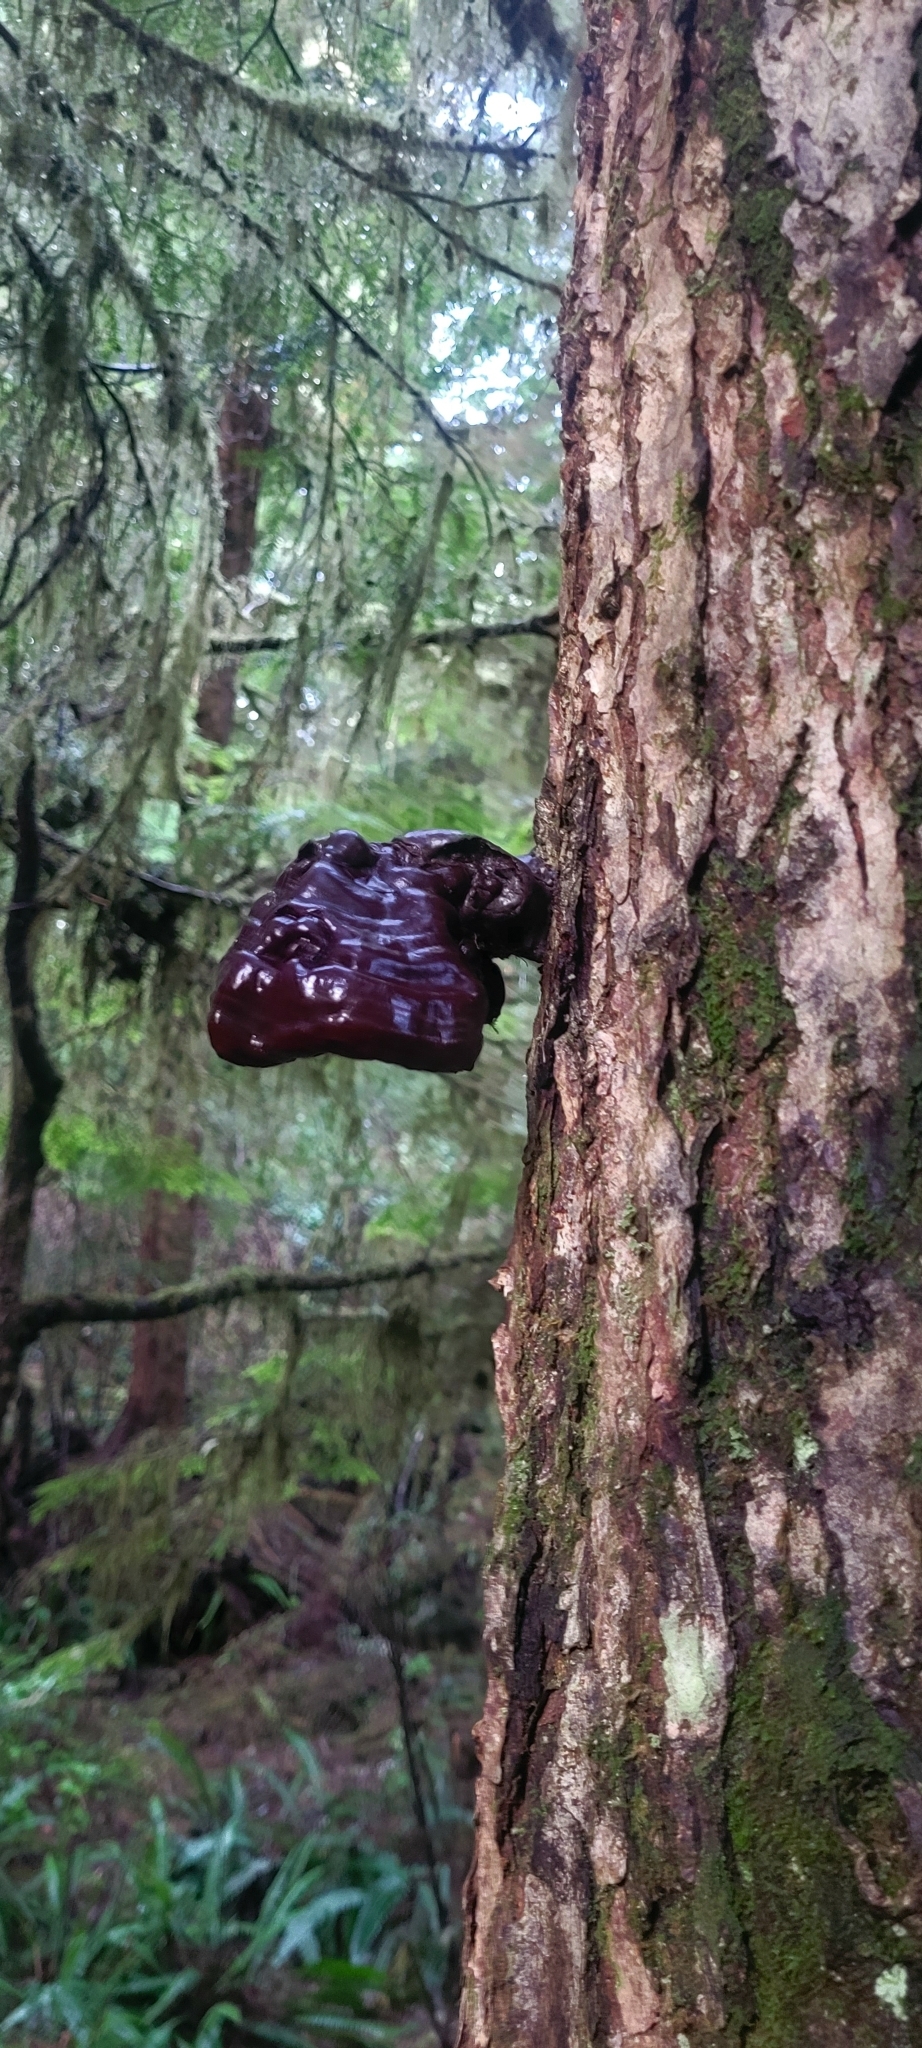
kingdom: Fungi
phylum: Basidiomycota
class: Agaricomycetes
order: Polyporales
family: Polyporaceae
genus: Ganoderma
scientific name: Ganoderma oregonense
